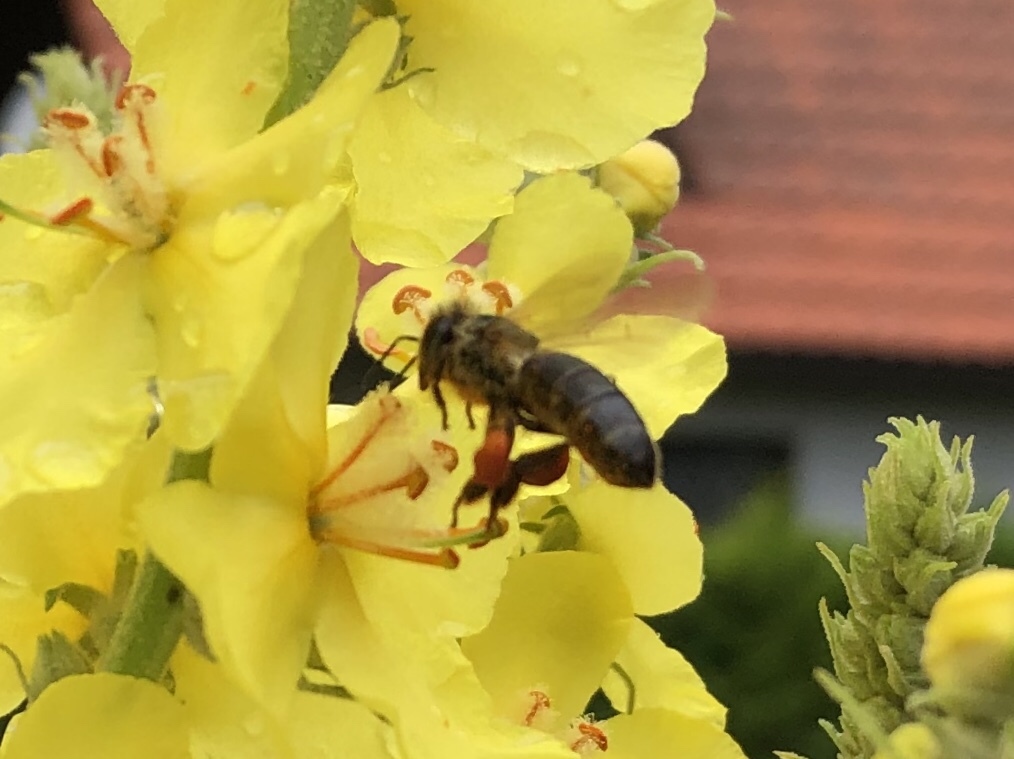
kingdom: Animalia
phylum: Arthropoda
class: Insecta
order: Hymenoptera
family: Apidae
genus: Apis
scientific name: Apis mellifera
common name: Honey bee
